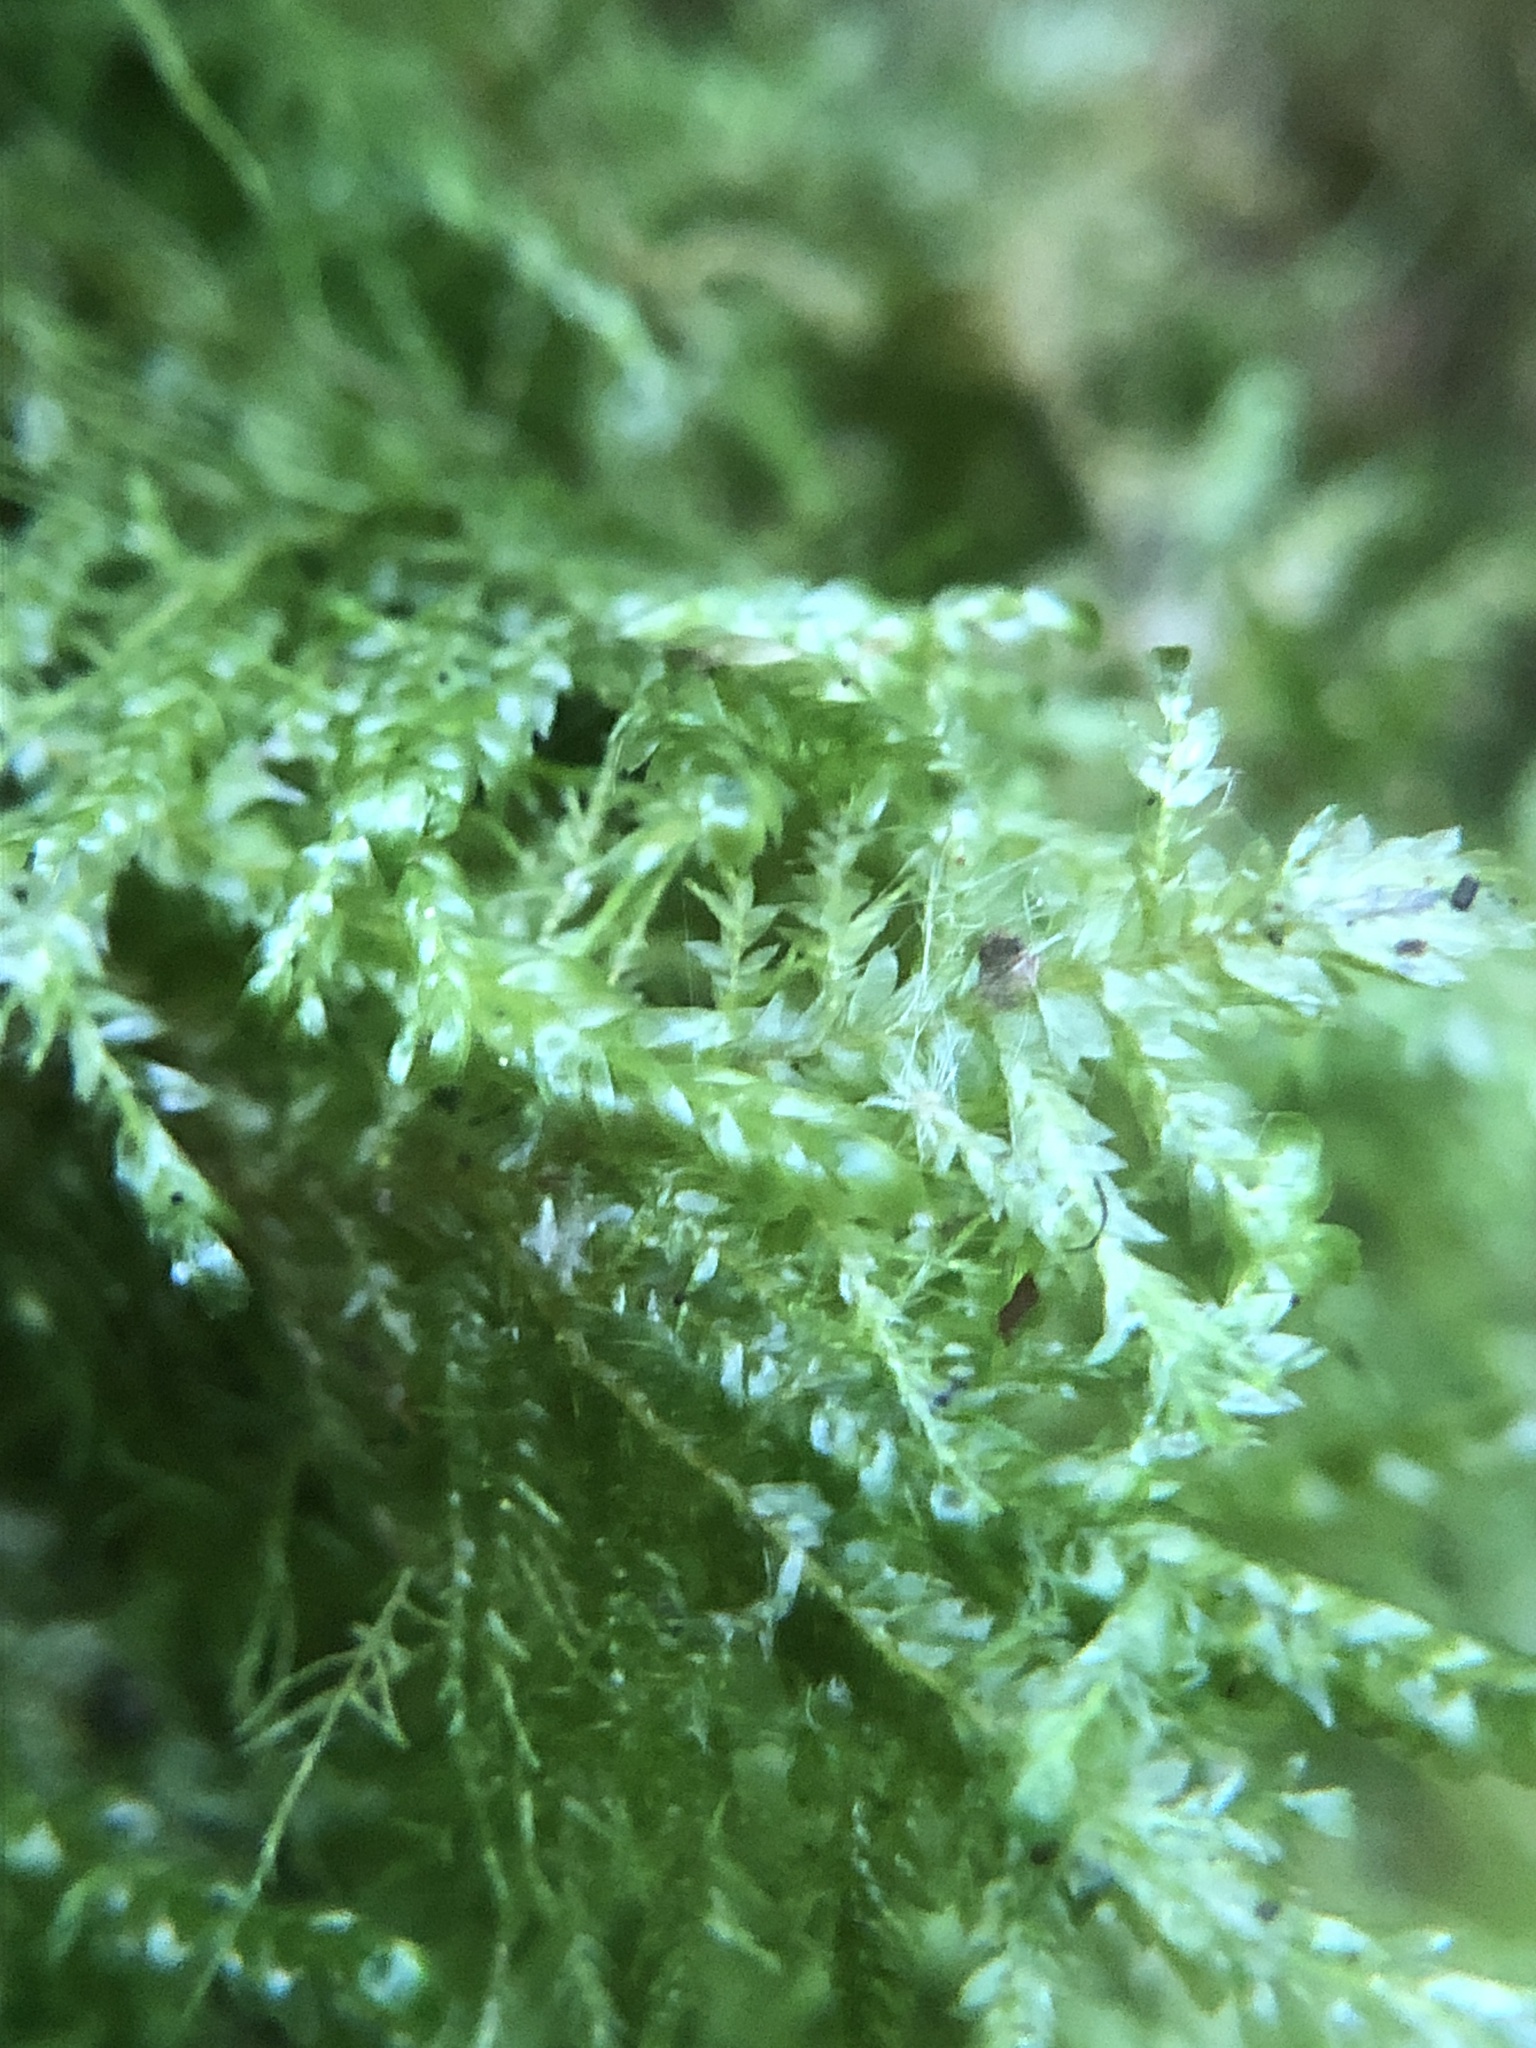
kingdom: Plantae
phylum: Bryophyta
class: Bryopsida
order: Hypnales
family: Neckeraceae
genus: Alleniella
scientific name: Alleniella complanata
